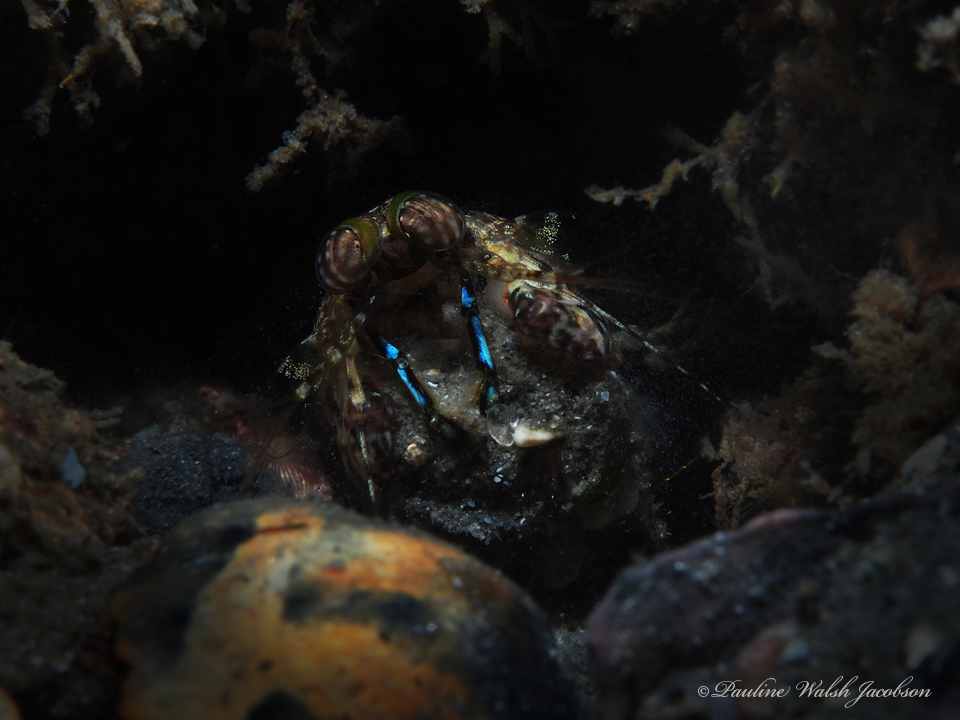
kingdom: Animalia
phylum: Arthropoda
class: Malacostraca
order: Stomatopoda
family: Pseudosquillidae
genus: Pseudosquilla
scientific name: Pseudosquilla ciliata
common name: Ciliated false squilla
